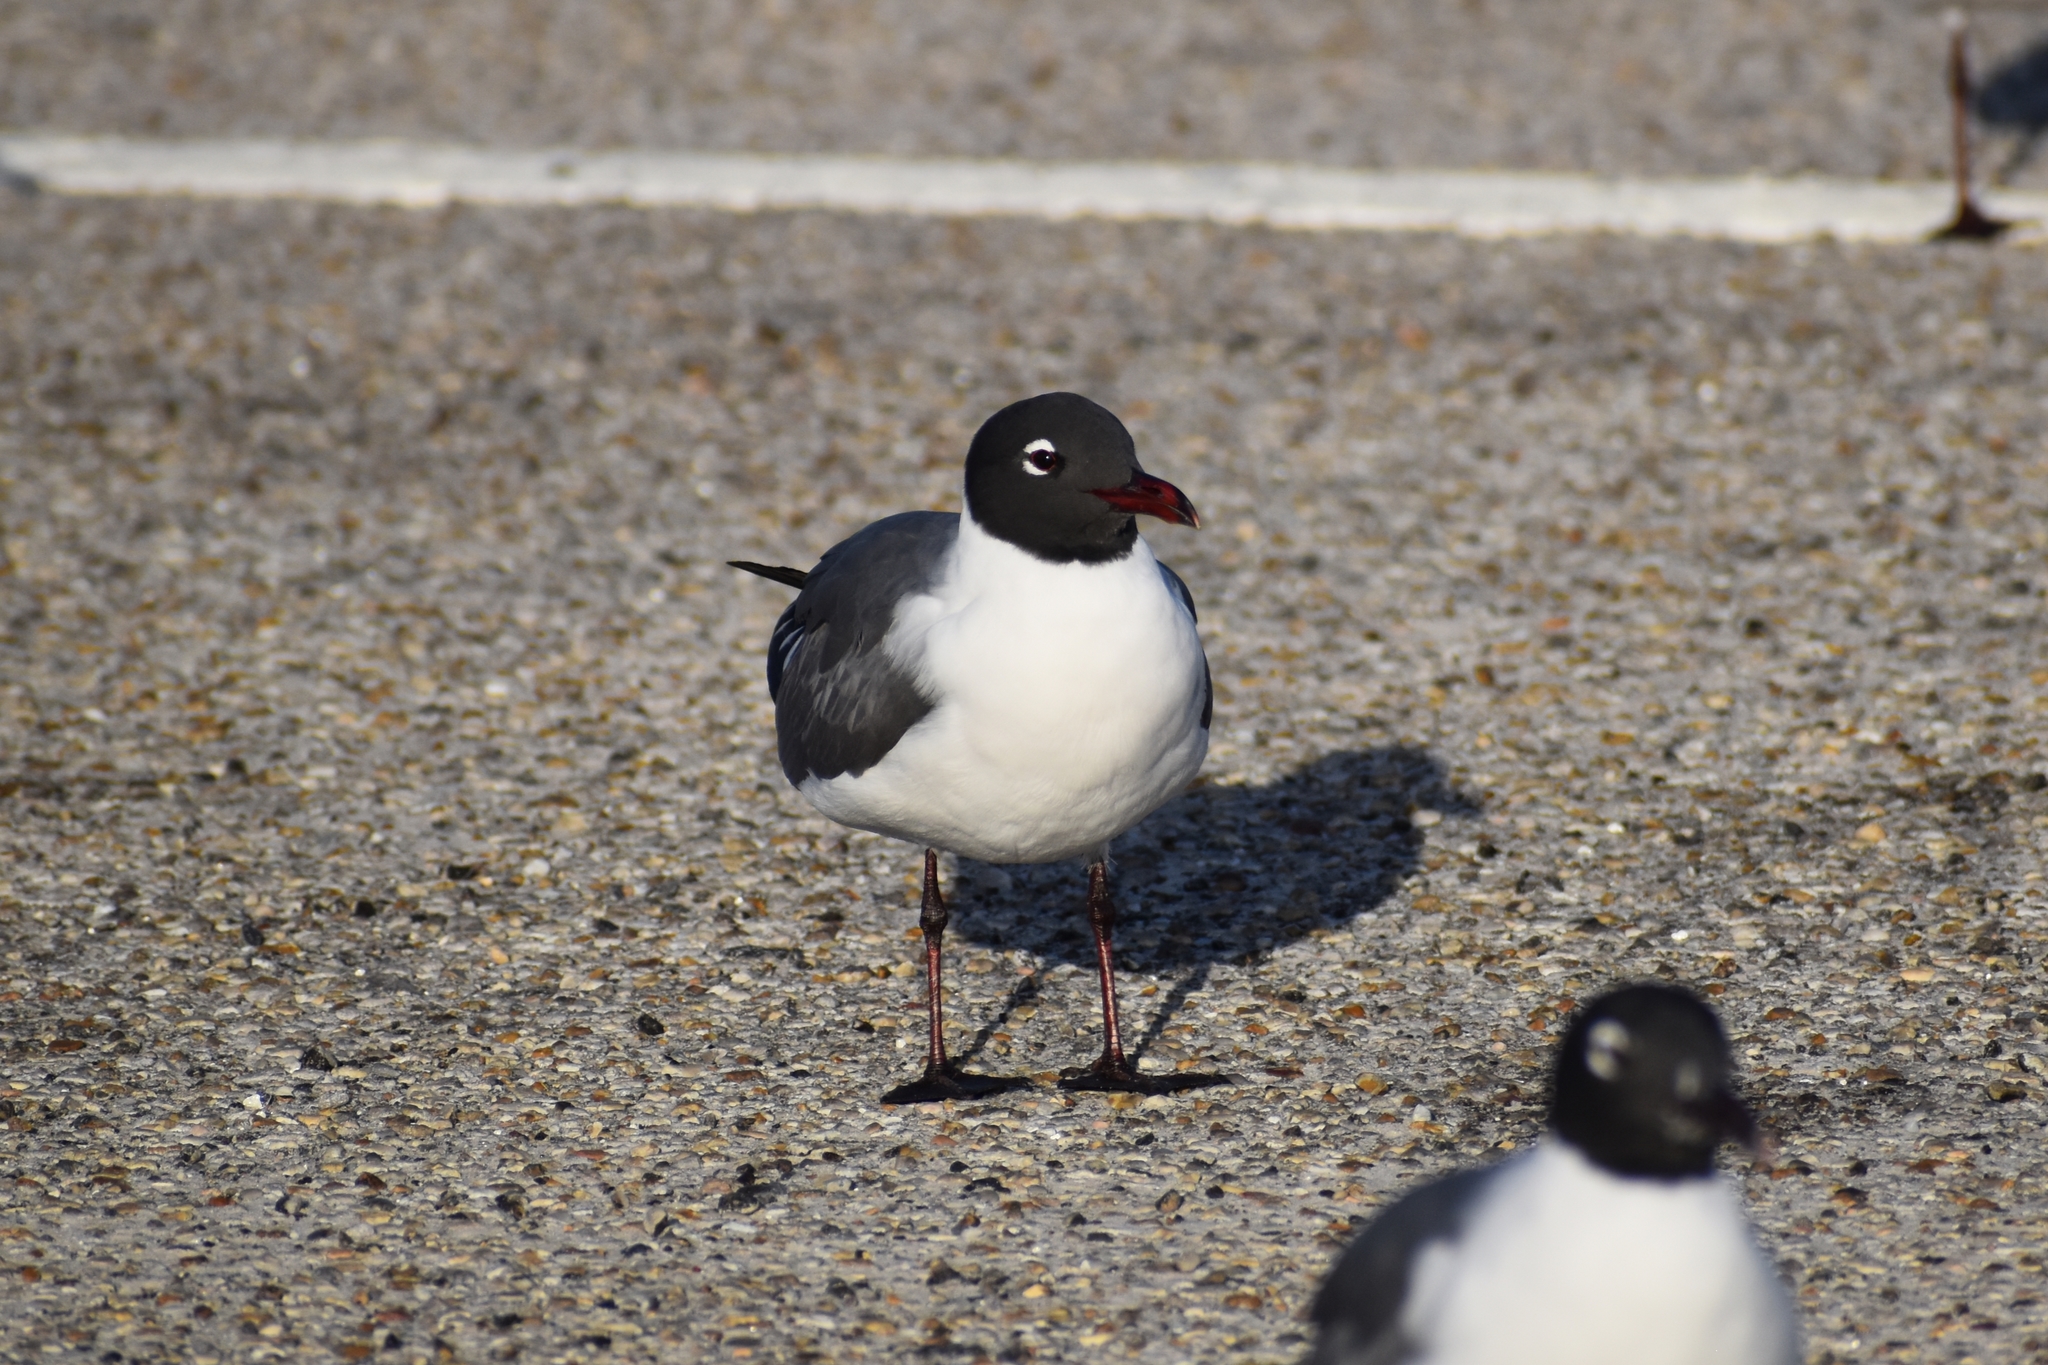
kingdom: Animalia
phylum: Chordata
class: Aves
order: Charadriiformes
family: Laridae
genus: Leucophaeus
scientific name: Leucophaeus atricilla
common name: Laughing gull
